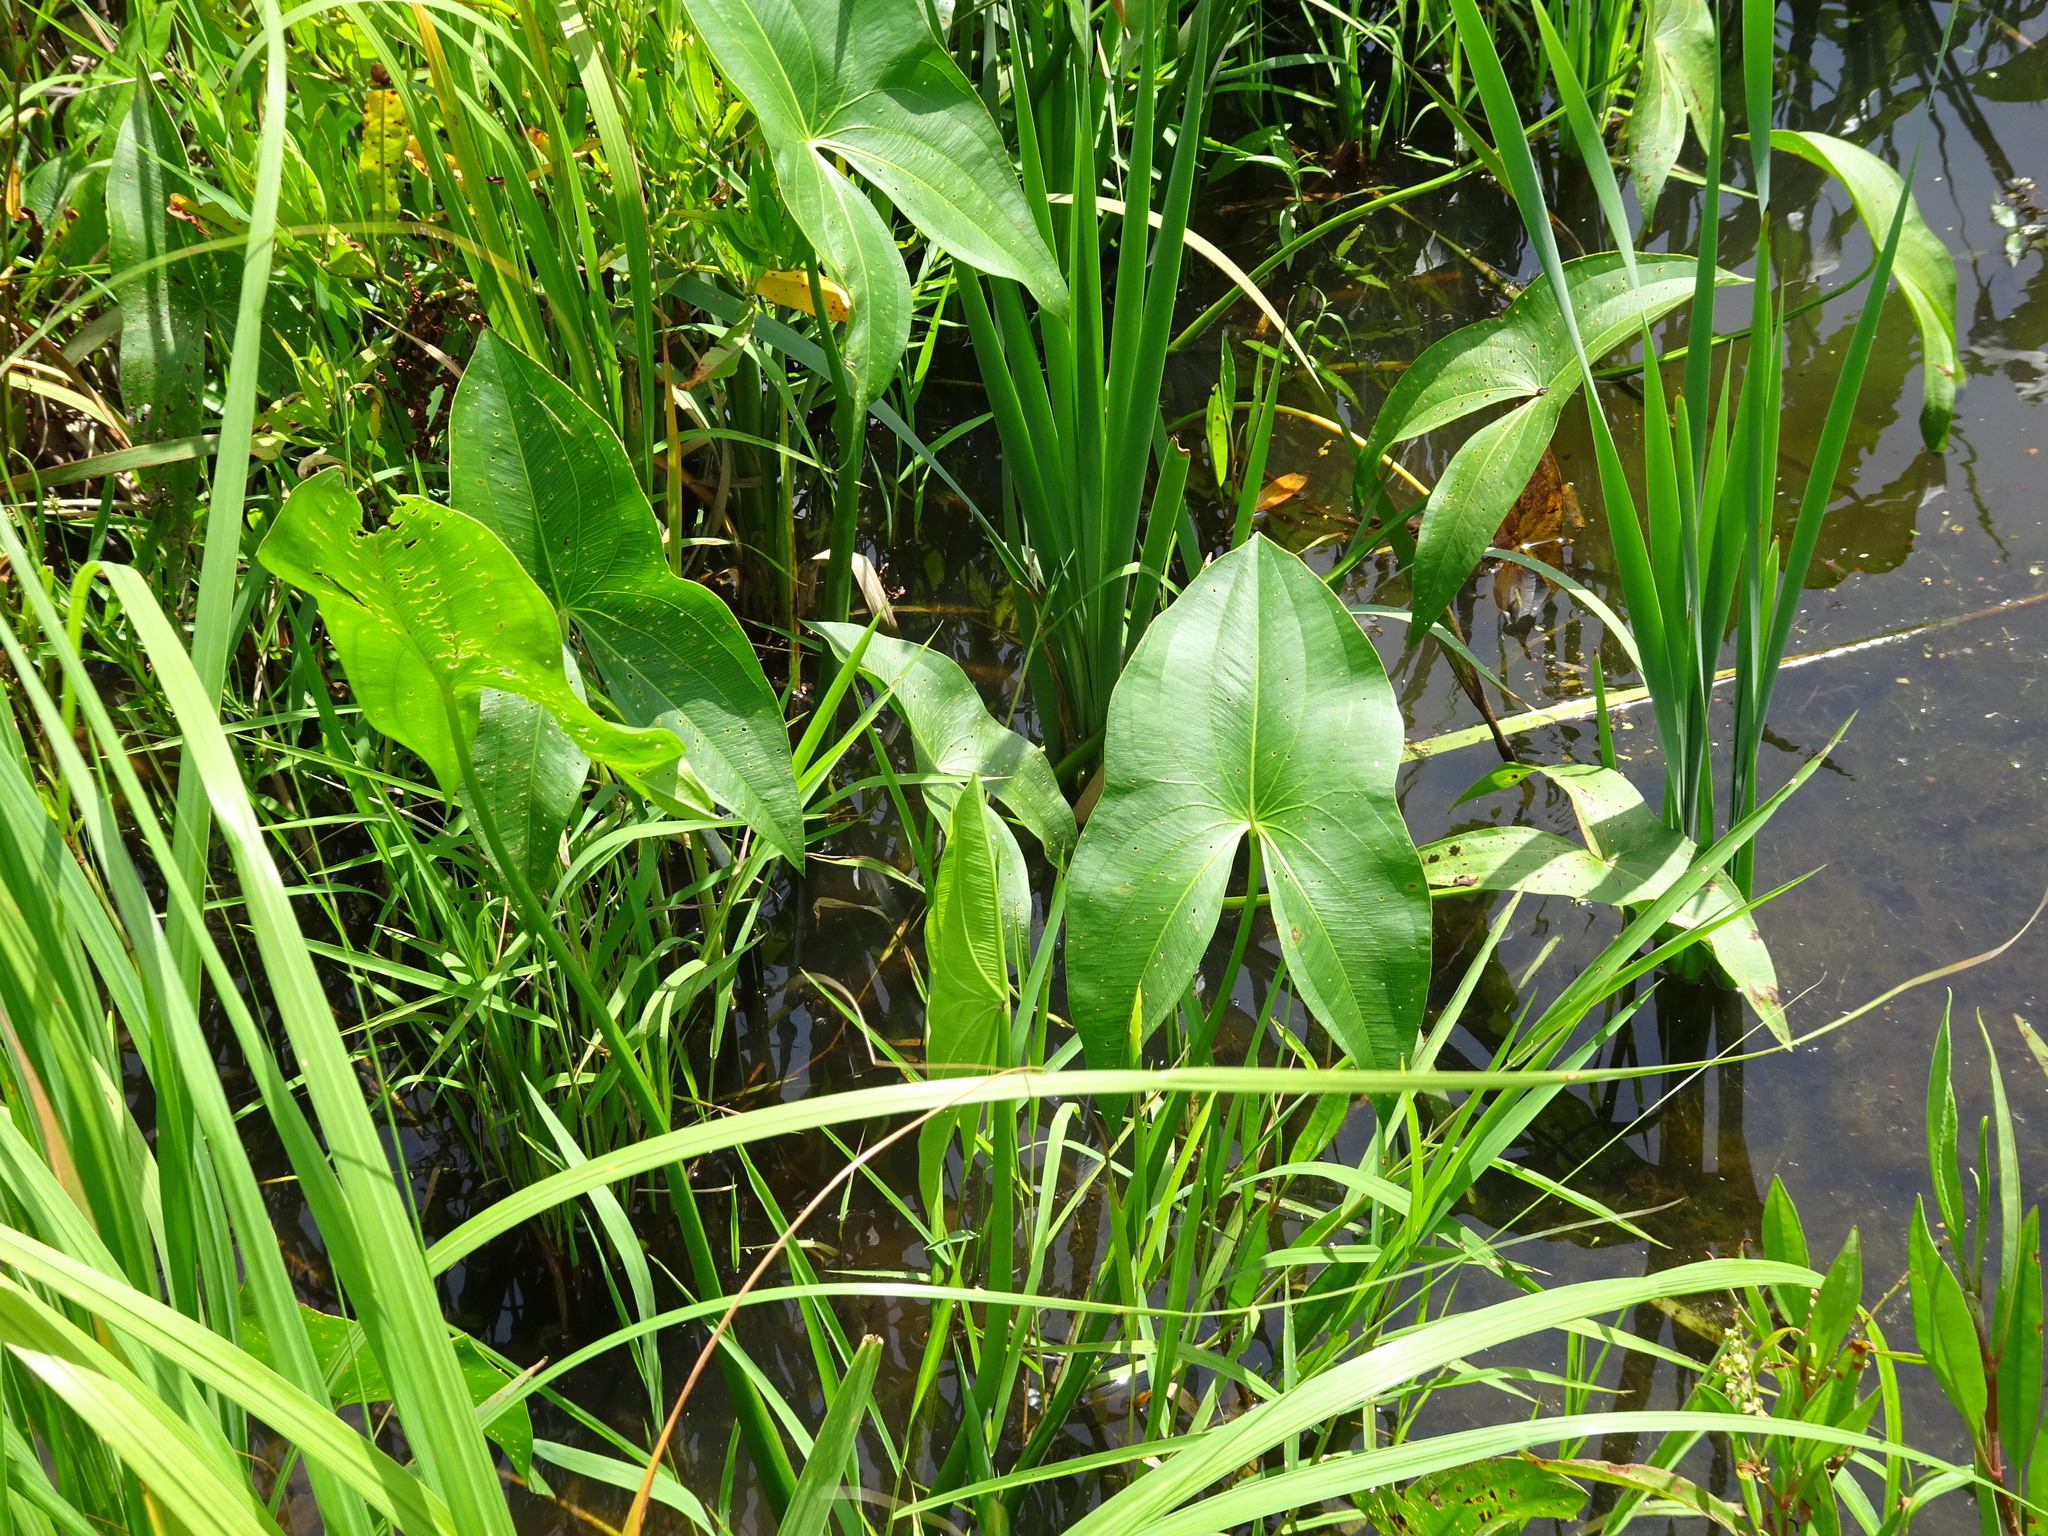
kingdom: Plantae
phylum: Tracheophyta
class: Liliopsida
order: Alismatales
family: Alismataceae
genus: Sagittaria
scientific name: Sagittaria
